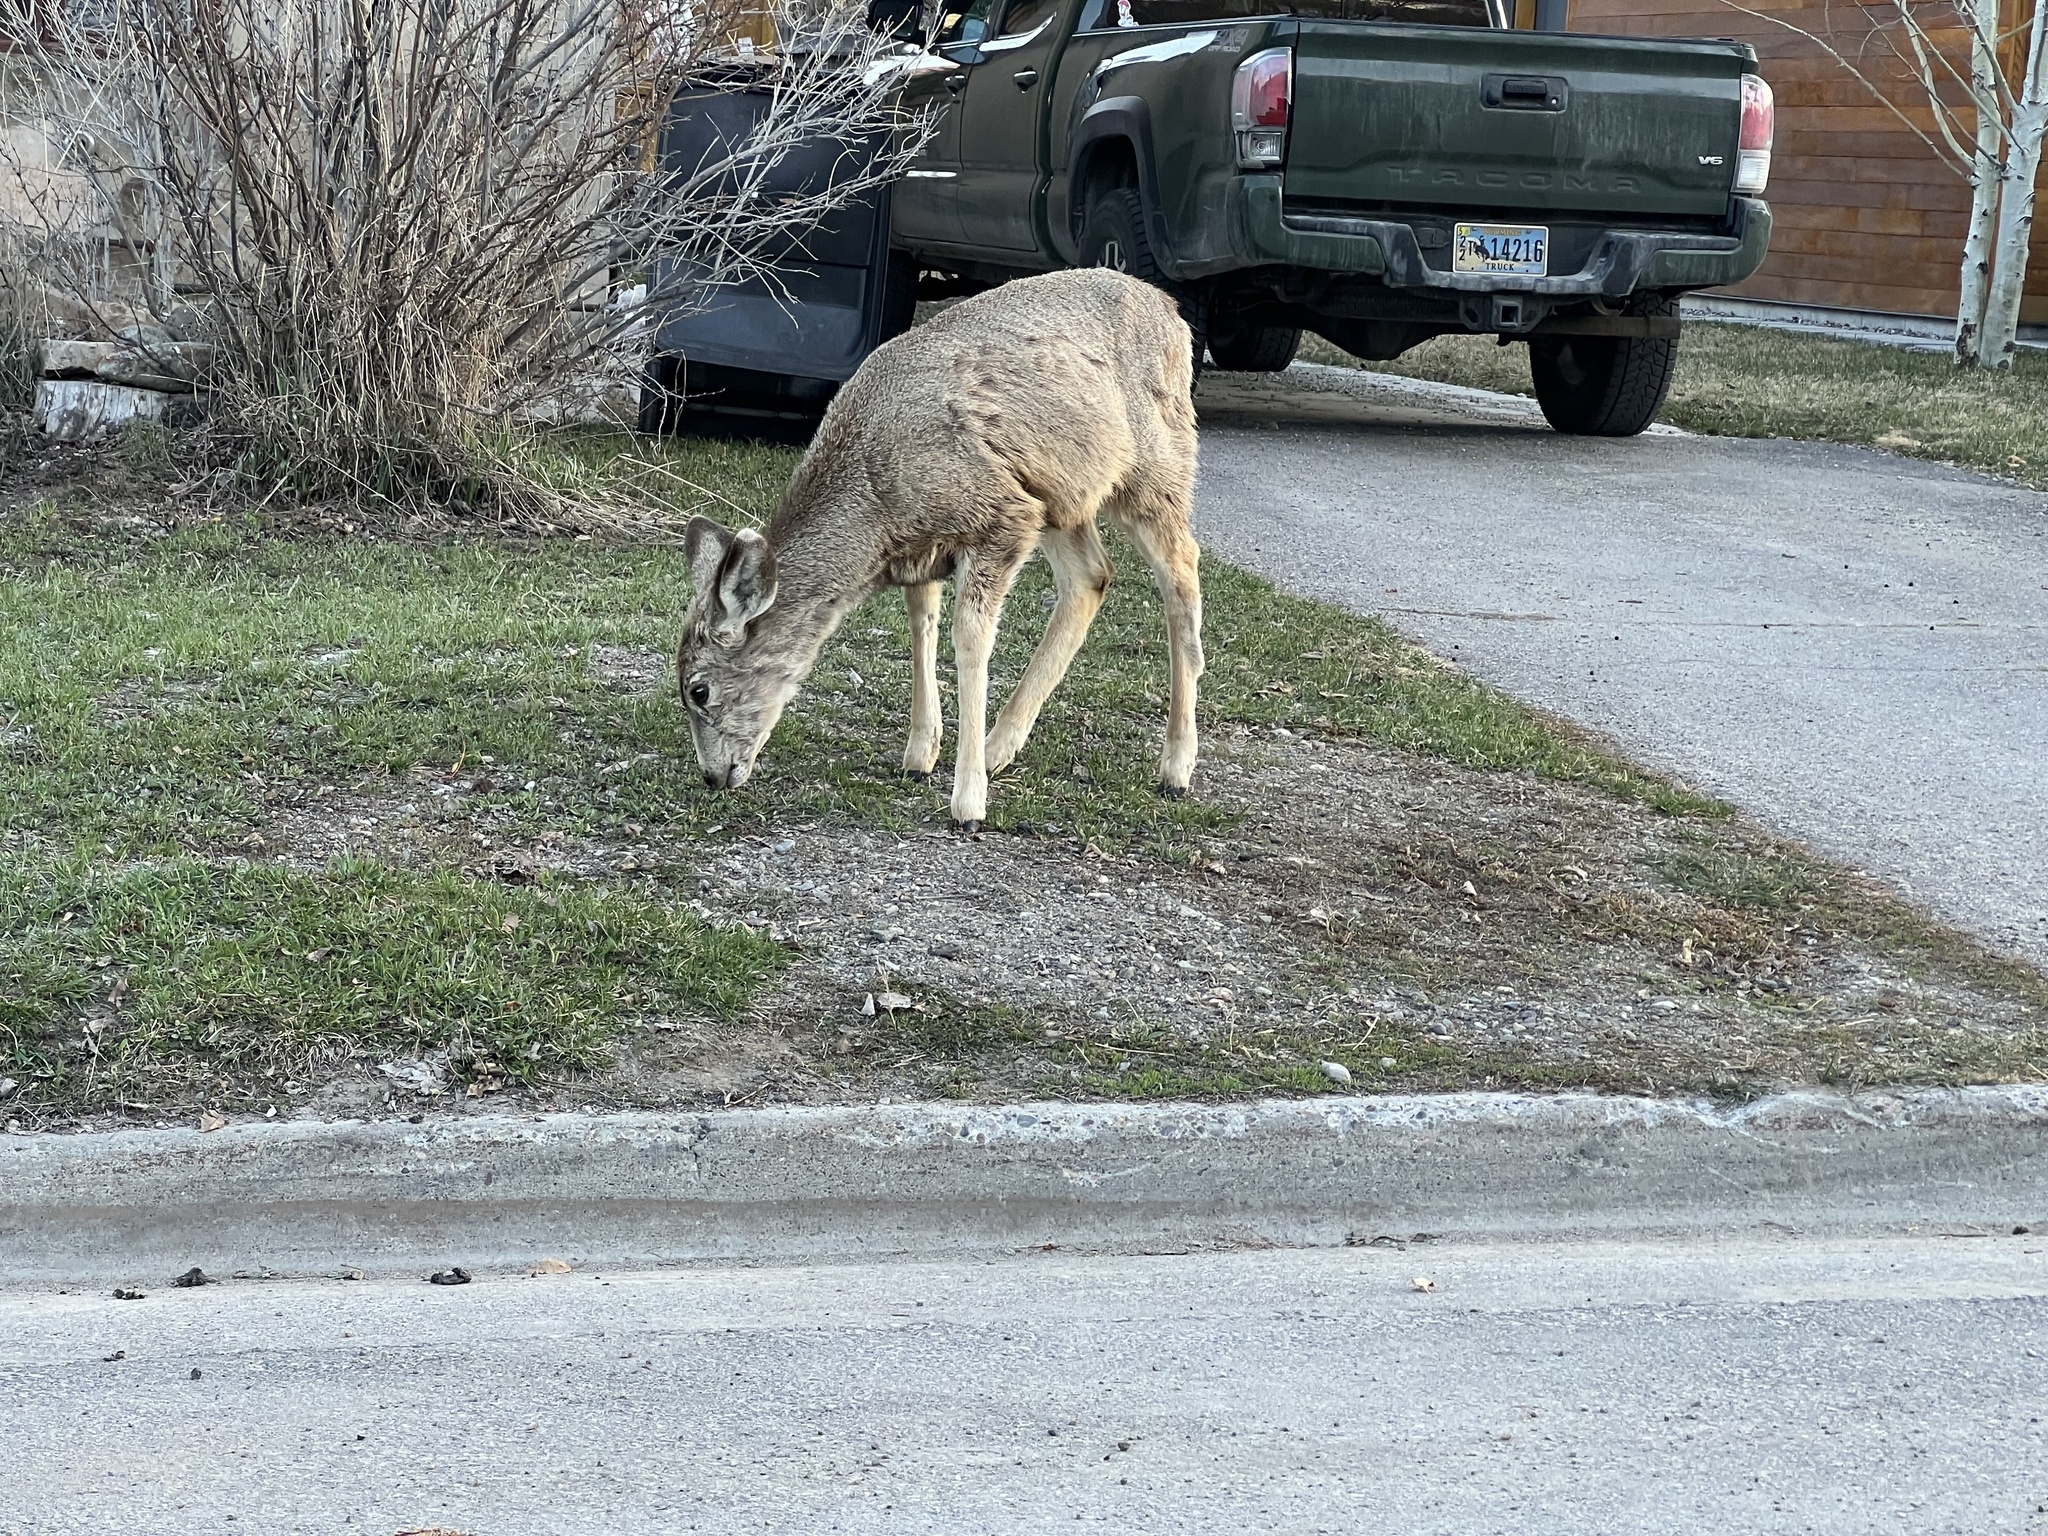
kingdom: Animalia
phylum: Chordata
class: Mammalia
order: Artiodactyla
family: Cervidae
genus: Odocoileus
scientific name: Odocoileus hemionus
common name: Mule deer
